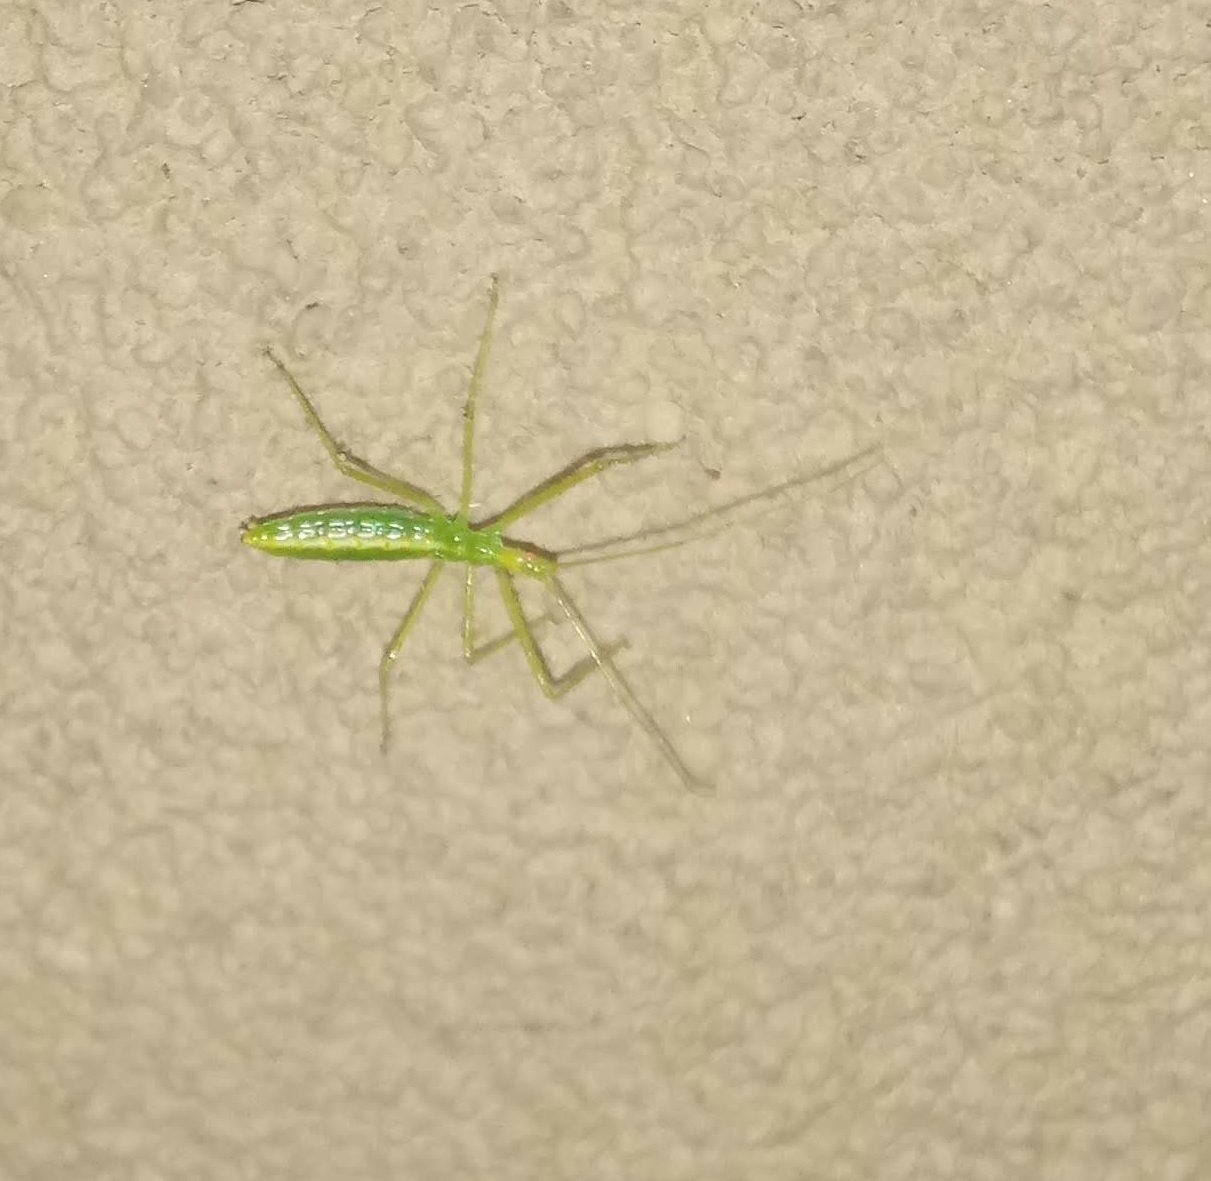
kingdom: Animalia
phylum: Arthropoda
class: Insecta
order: Hemiptera
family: Reduviidae
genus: Zelus
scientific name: Zelus luridus
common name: Pale green assassin bug
